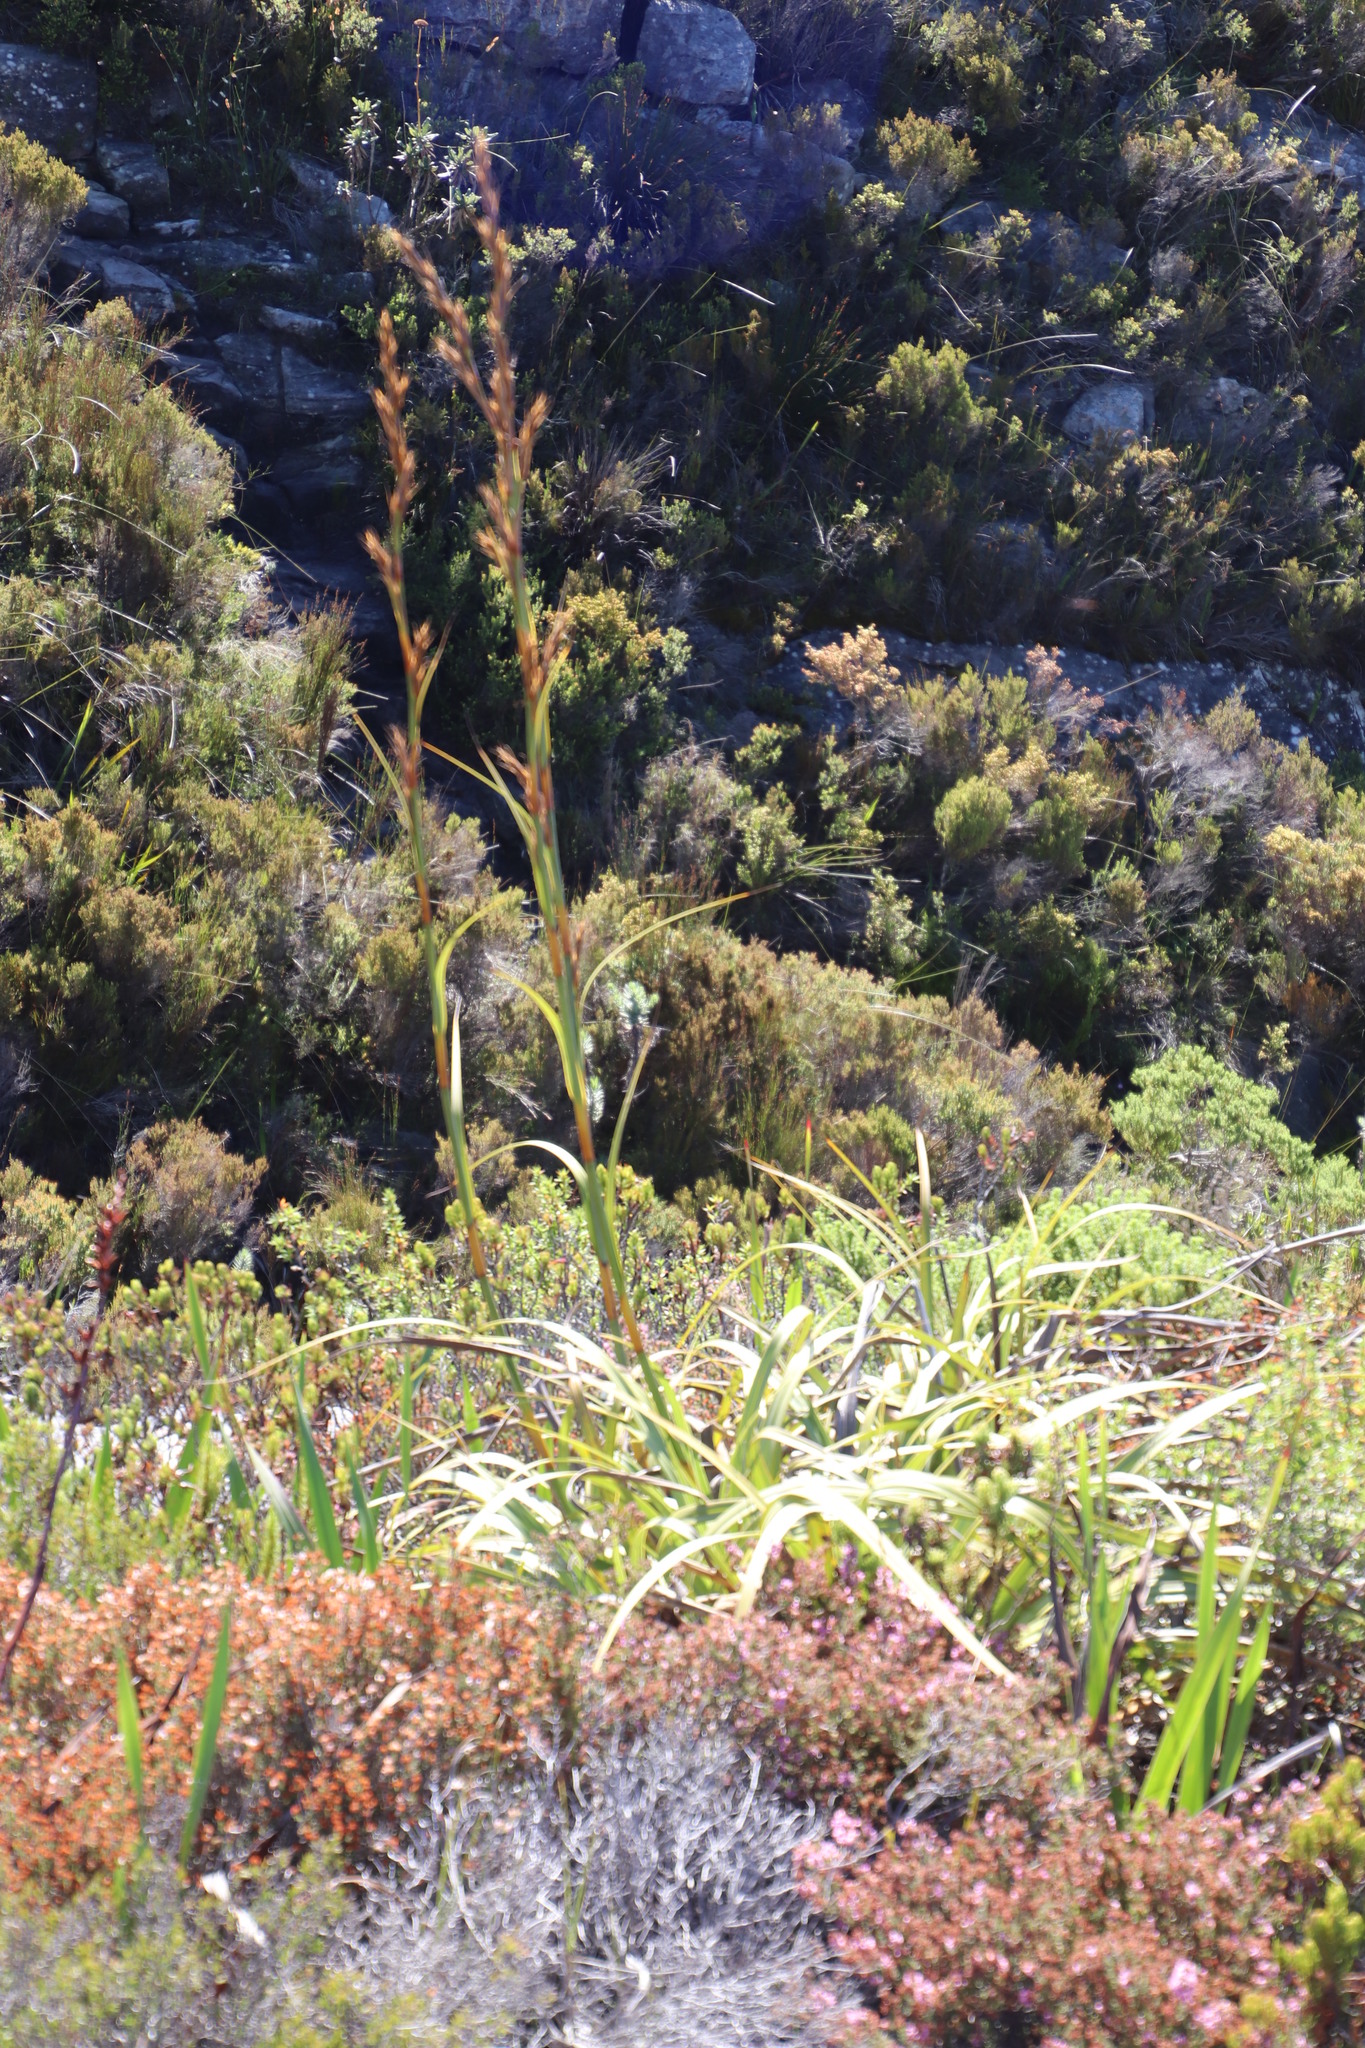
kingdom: Plantae
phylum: Tracheophyta
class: Liliopsida
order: Poales
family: Cyperaceae
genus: Tetraria
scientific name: Tetraria thermalis
